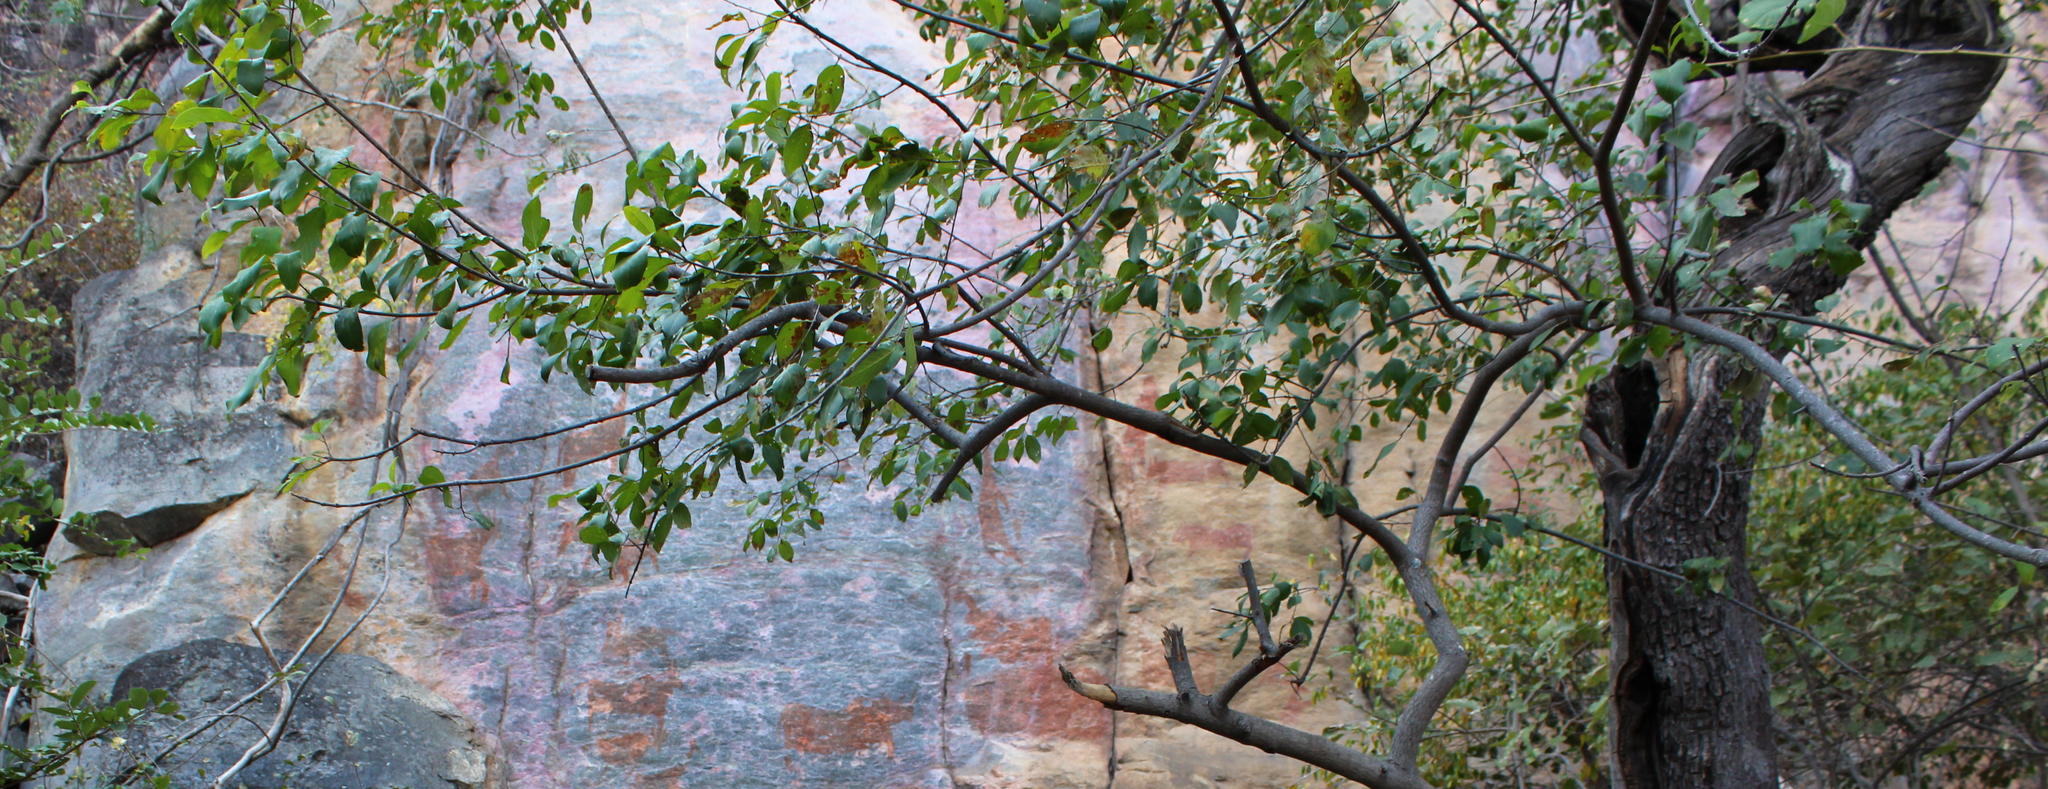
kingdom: Plantae
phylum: Tracheophyta
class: Magnoliopsida
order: Rosales
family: Rhamnaceae
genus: Phyllogeiton
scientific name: Phyllogeiton discolor
